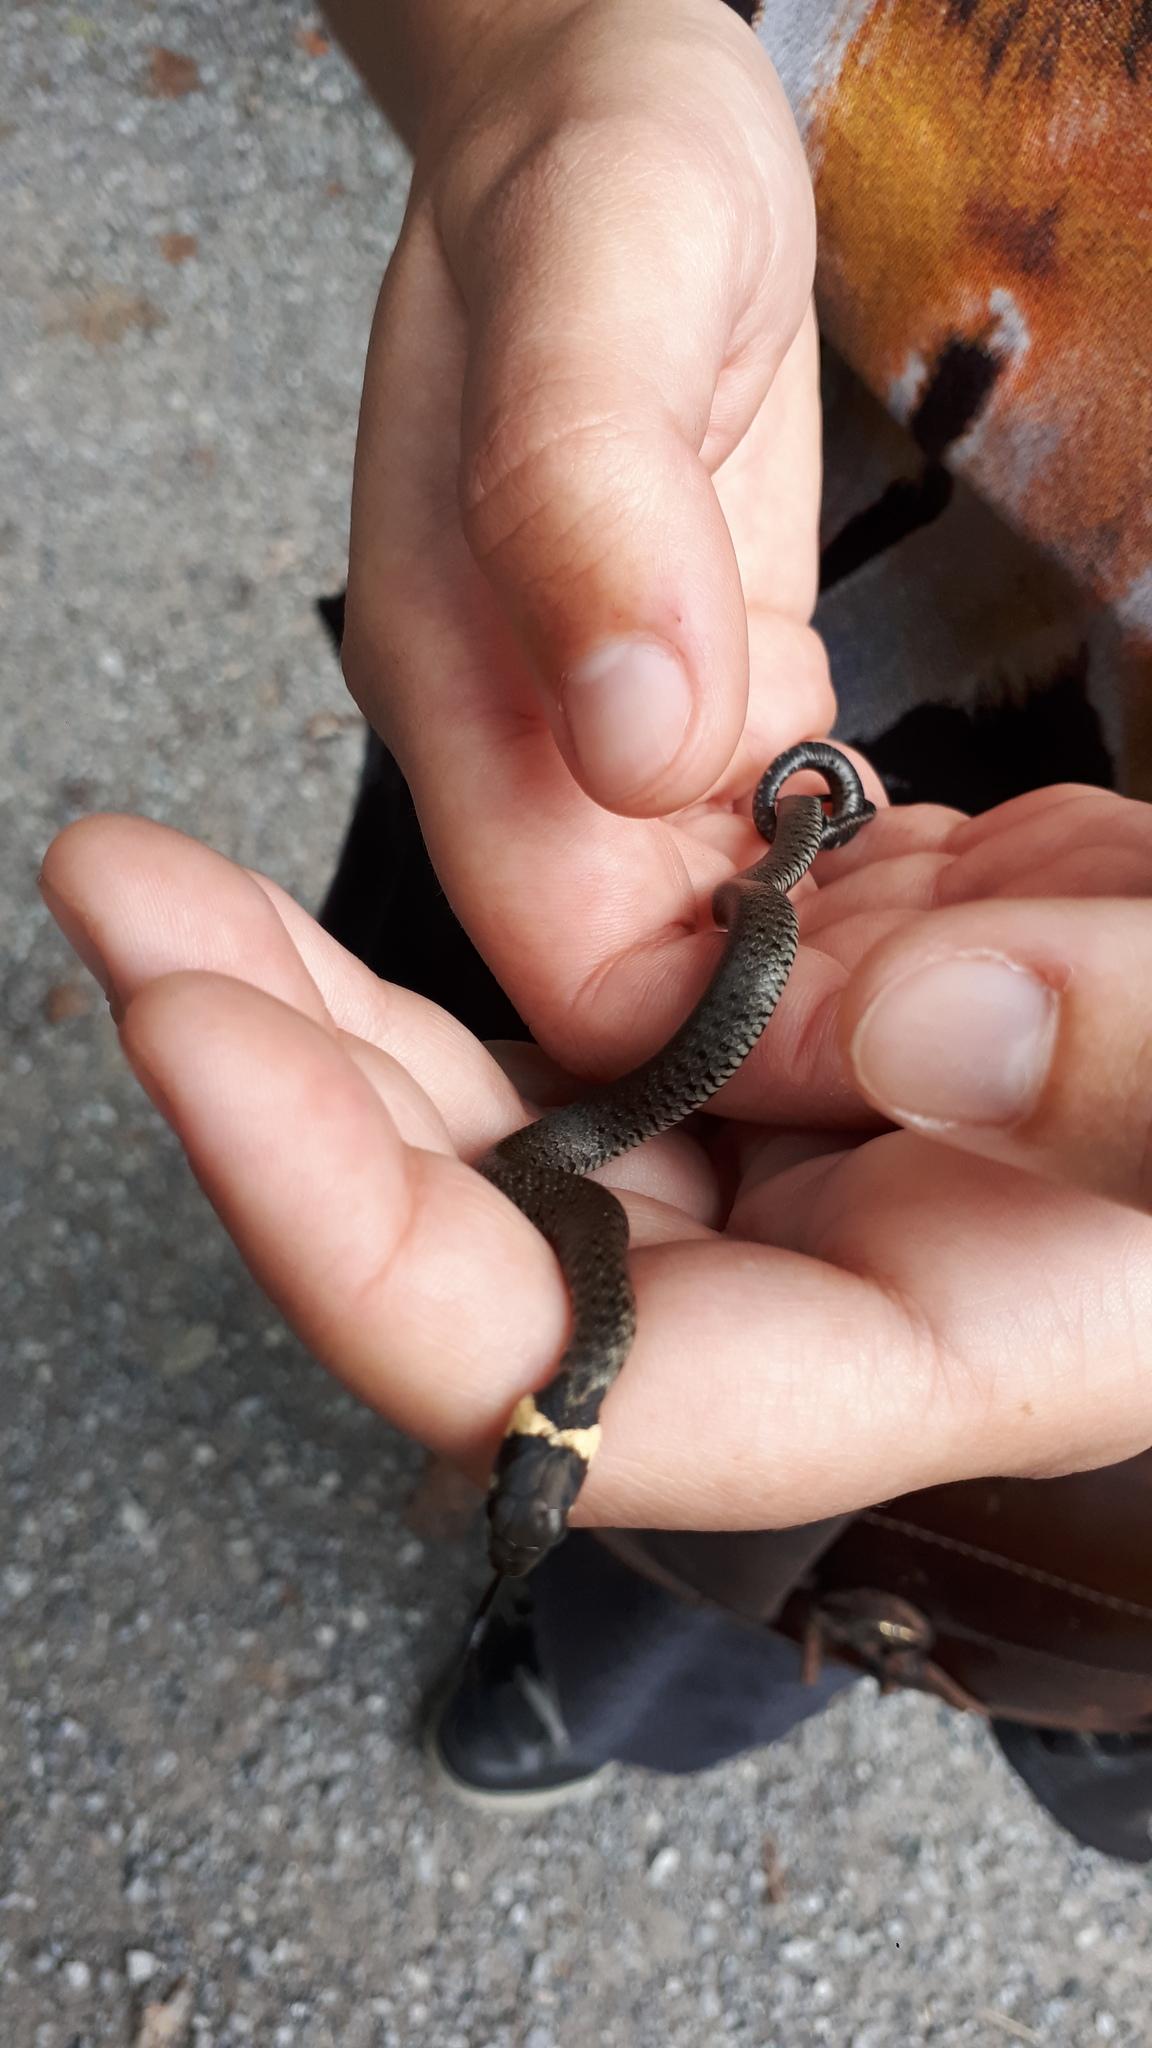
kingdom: Animalia
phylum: Chordata
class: Squamata
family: Colubridae
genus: Natrix
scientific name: Natrix helvetica
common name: Banded grass snake
